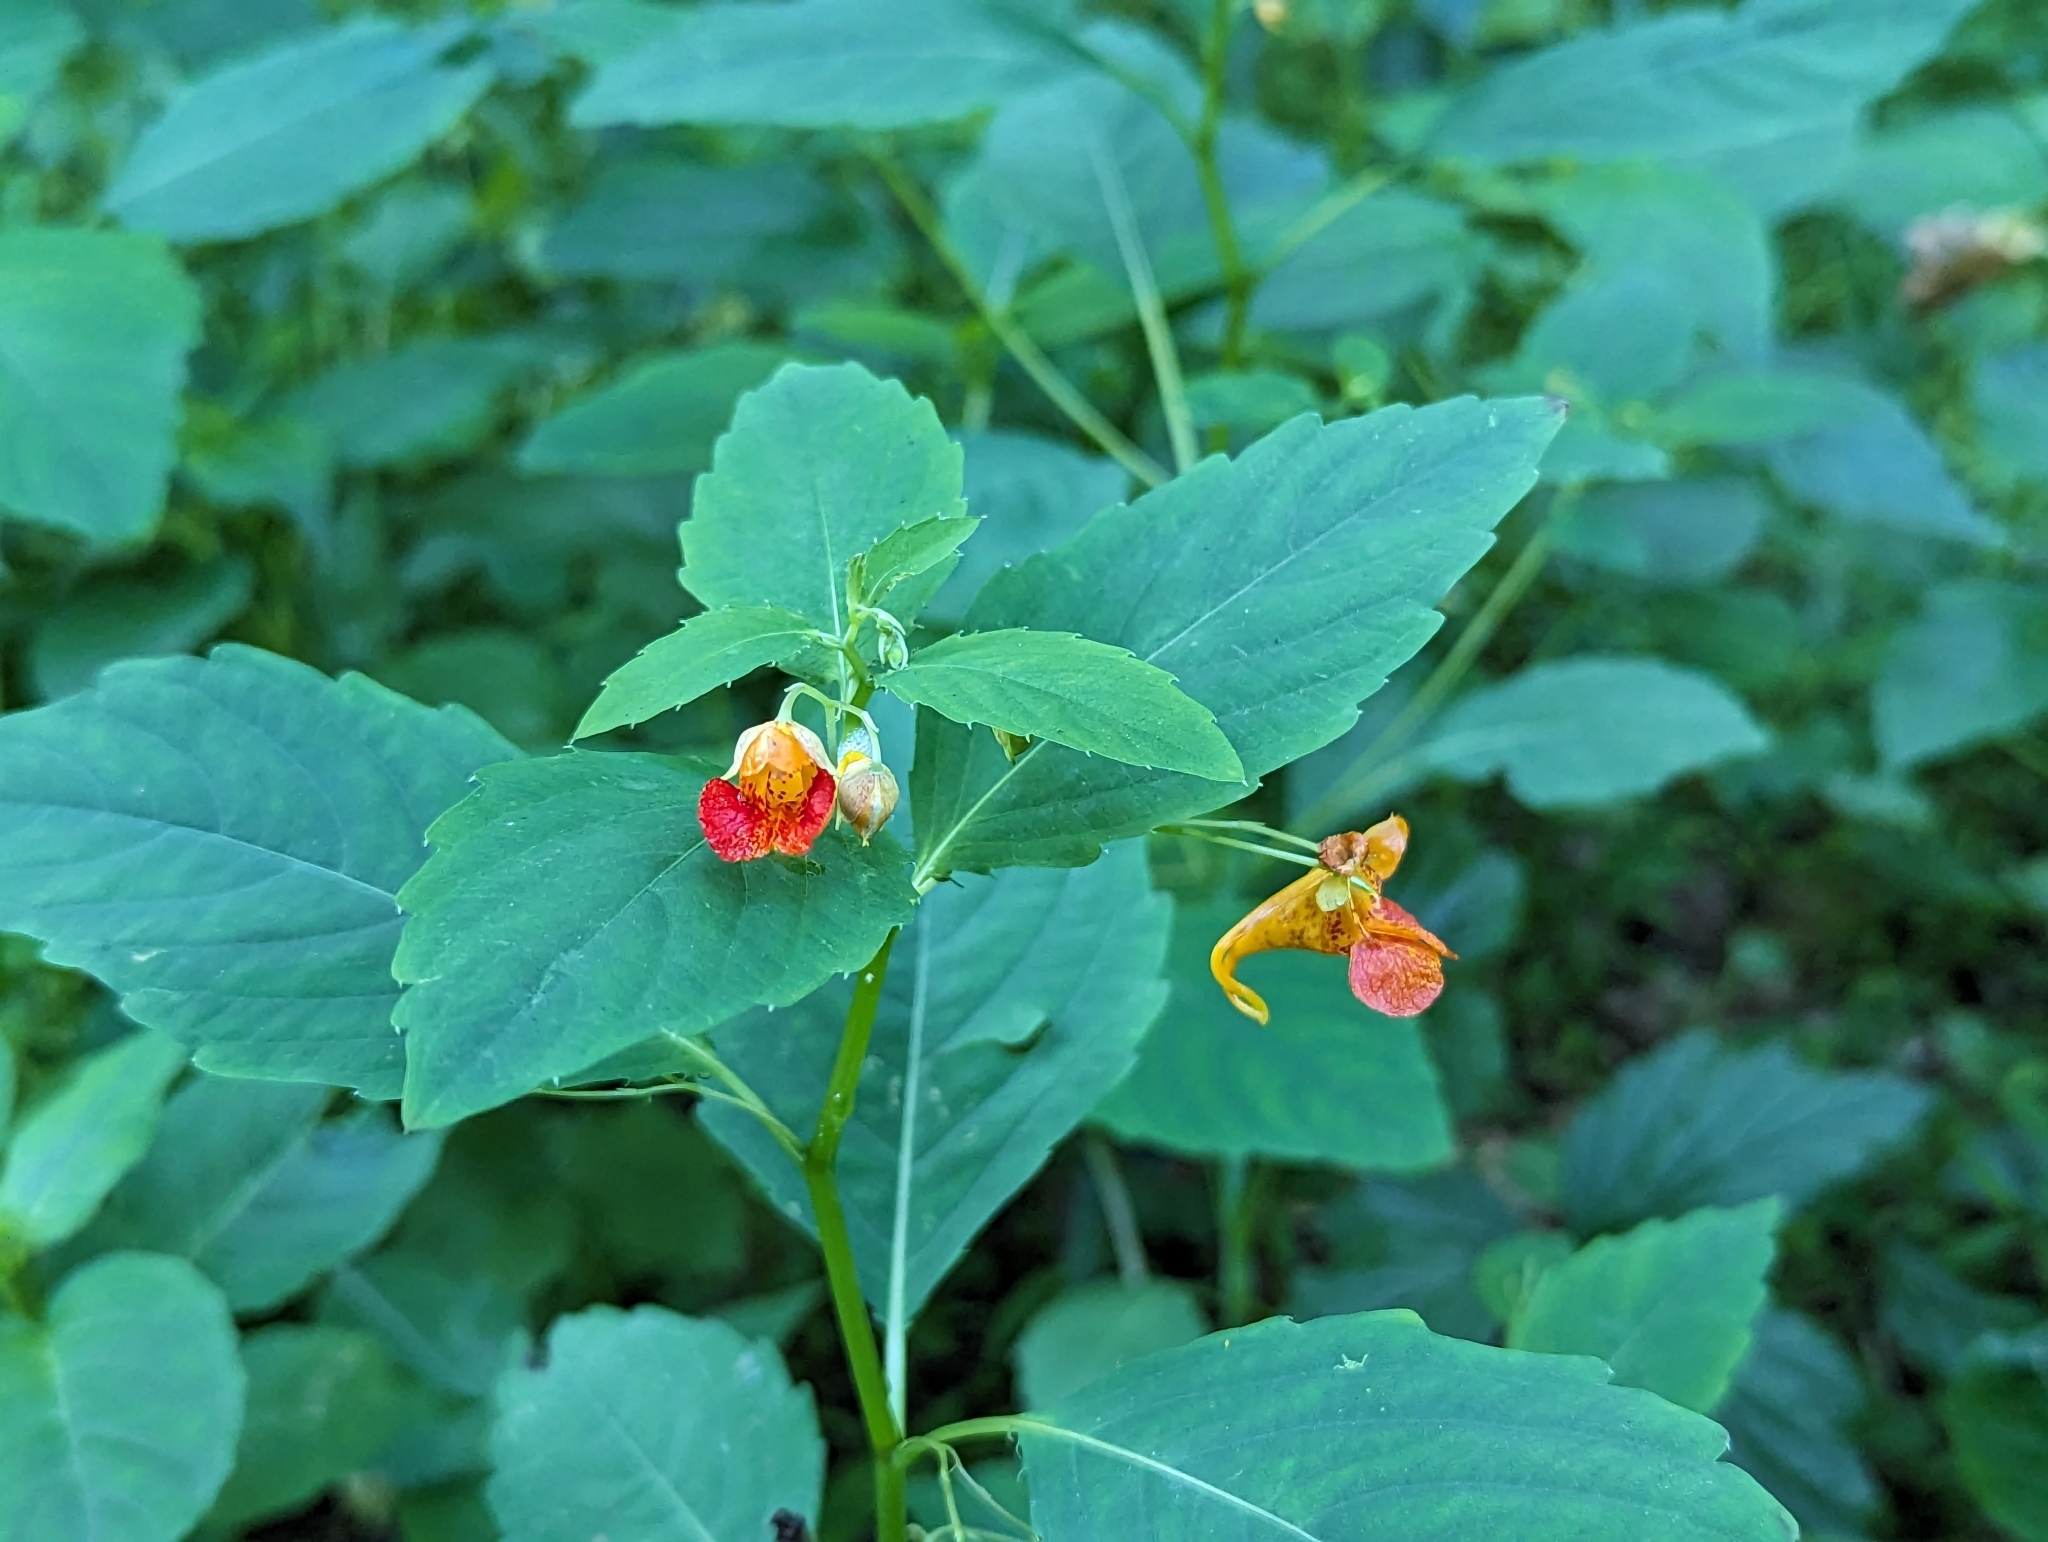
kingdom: Plantae
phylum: Tracheophyta
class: Magnoliopsida
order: Ericales
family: Balsaminaceae
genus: Impatiens
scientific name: Impatiens capensis
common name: Orange balsam
